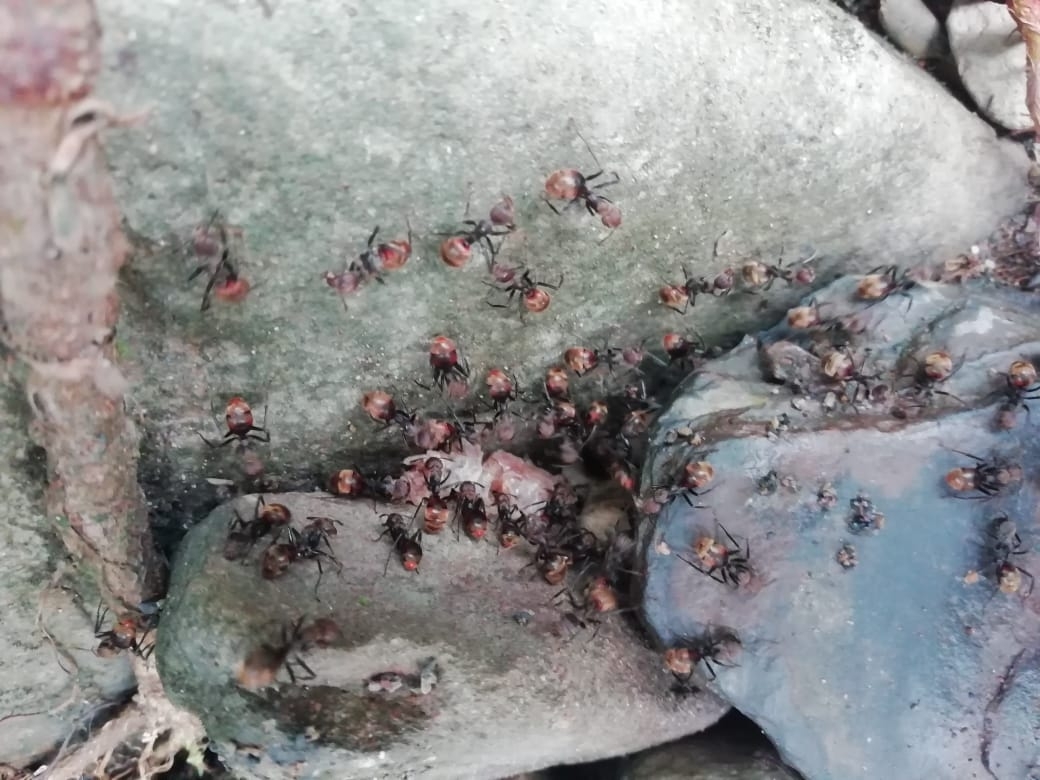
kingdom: Animalia
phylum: Arthropoda
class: Insecta
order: Hymenoptera
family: Formicidae
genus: Dolichoderus
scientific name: Dolichoderus quadridenticulatus
